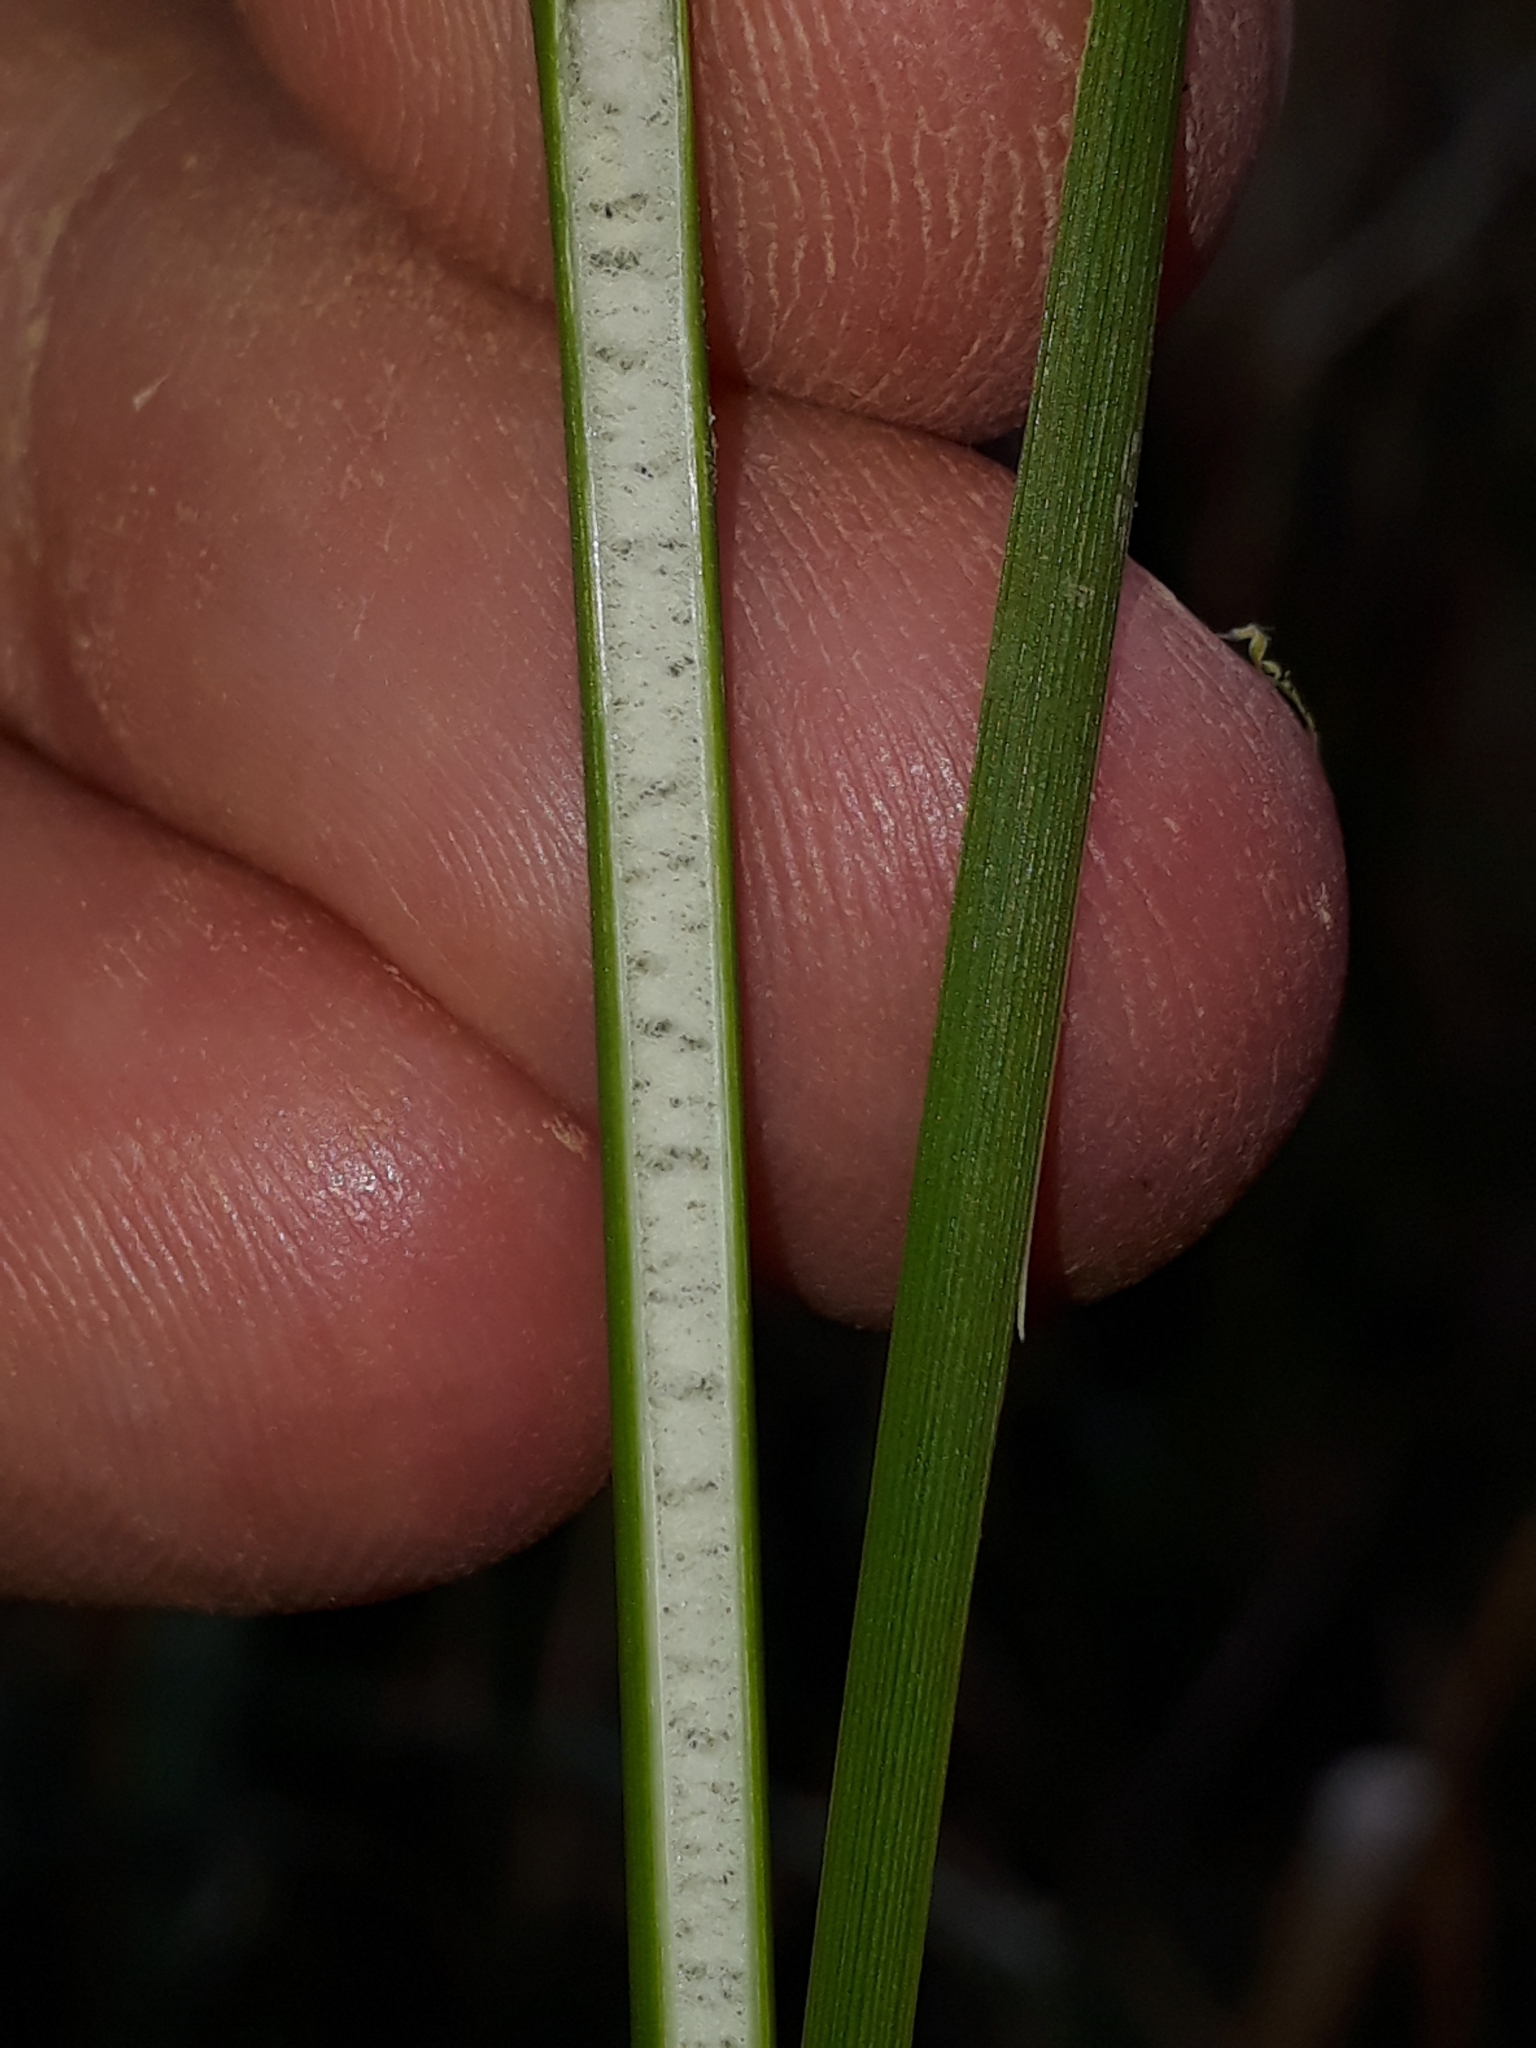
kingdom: Plantae
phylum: Tracheophyta
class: Liliopsida
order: Poales
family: Juncaceae
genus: Juncus
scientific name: Juncus sarophorus
